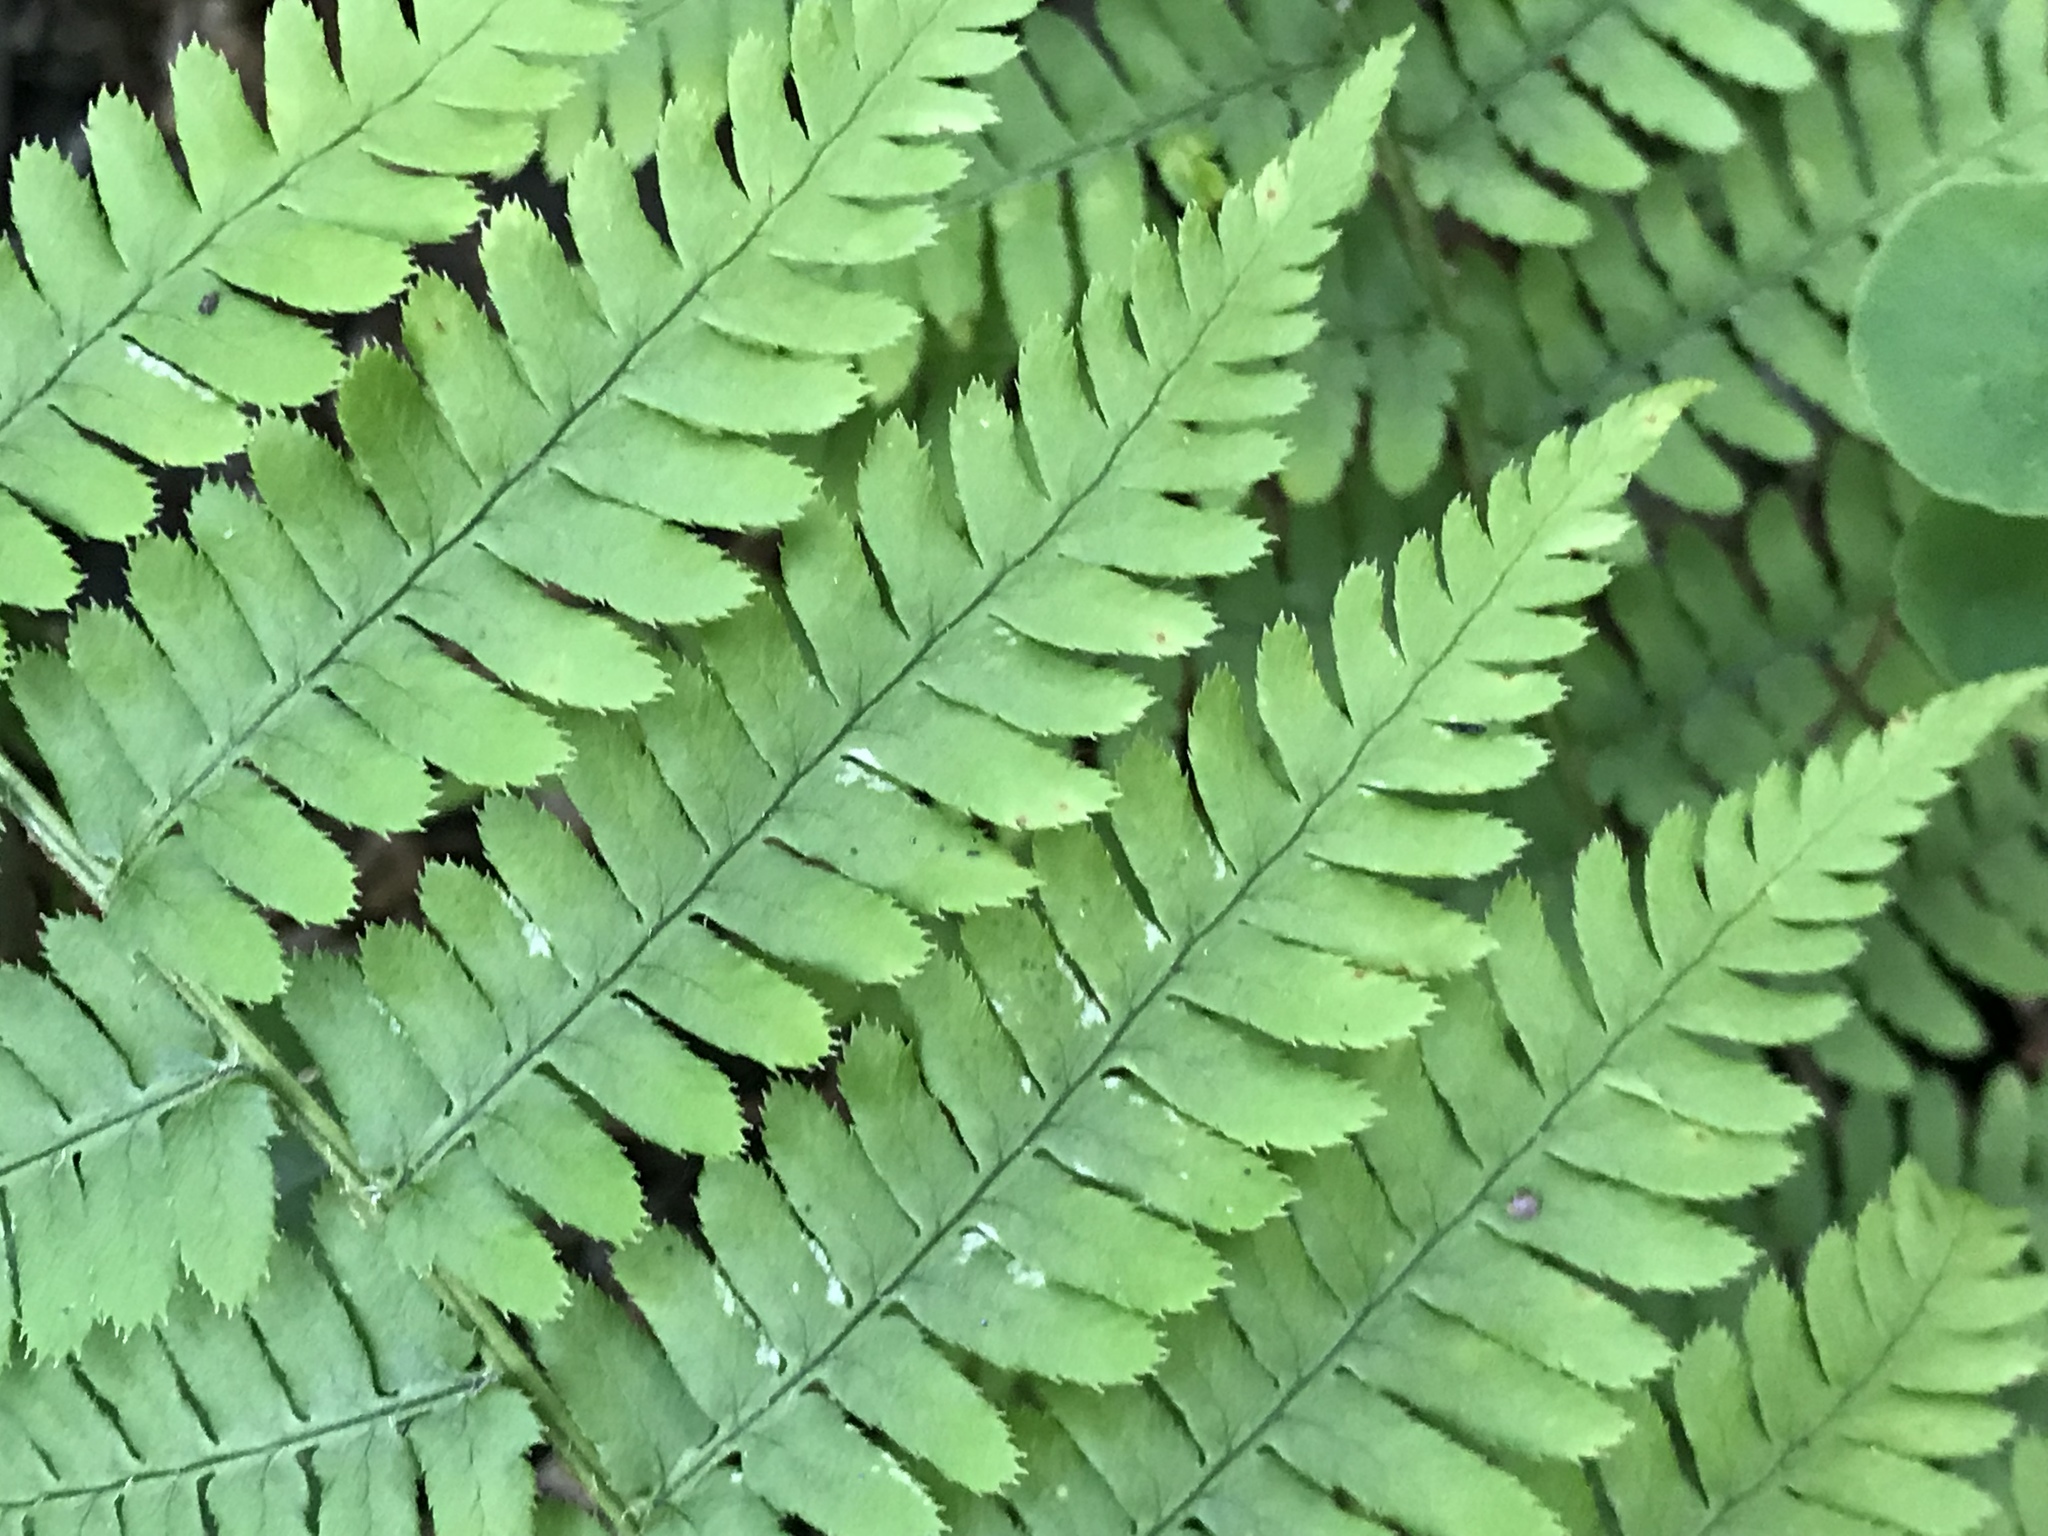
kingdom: Plantae
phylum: Tracheophyta
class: Polypodiopsida
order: Polypodiales
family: Dryopteridaceae
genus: Dryopteris
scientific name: Dryopteris arguta
